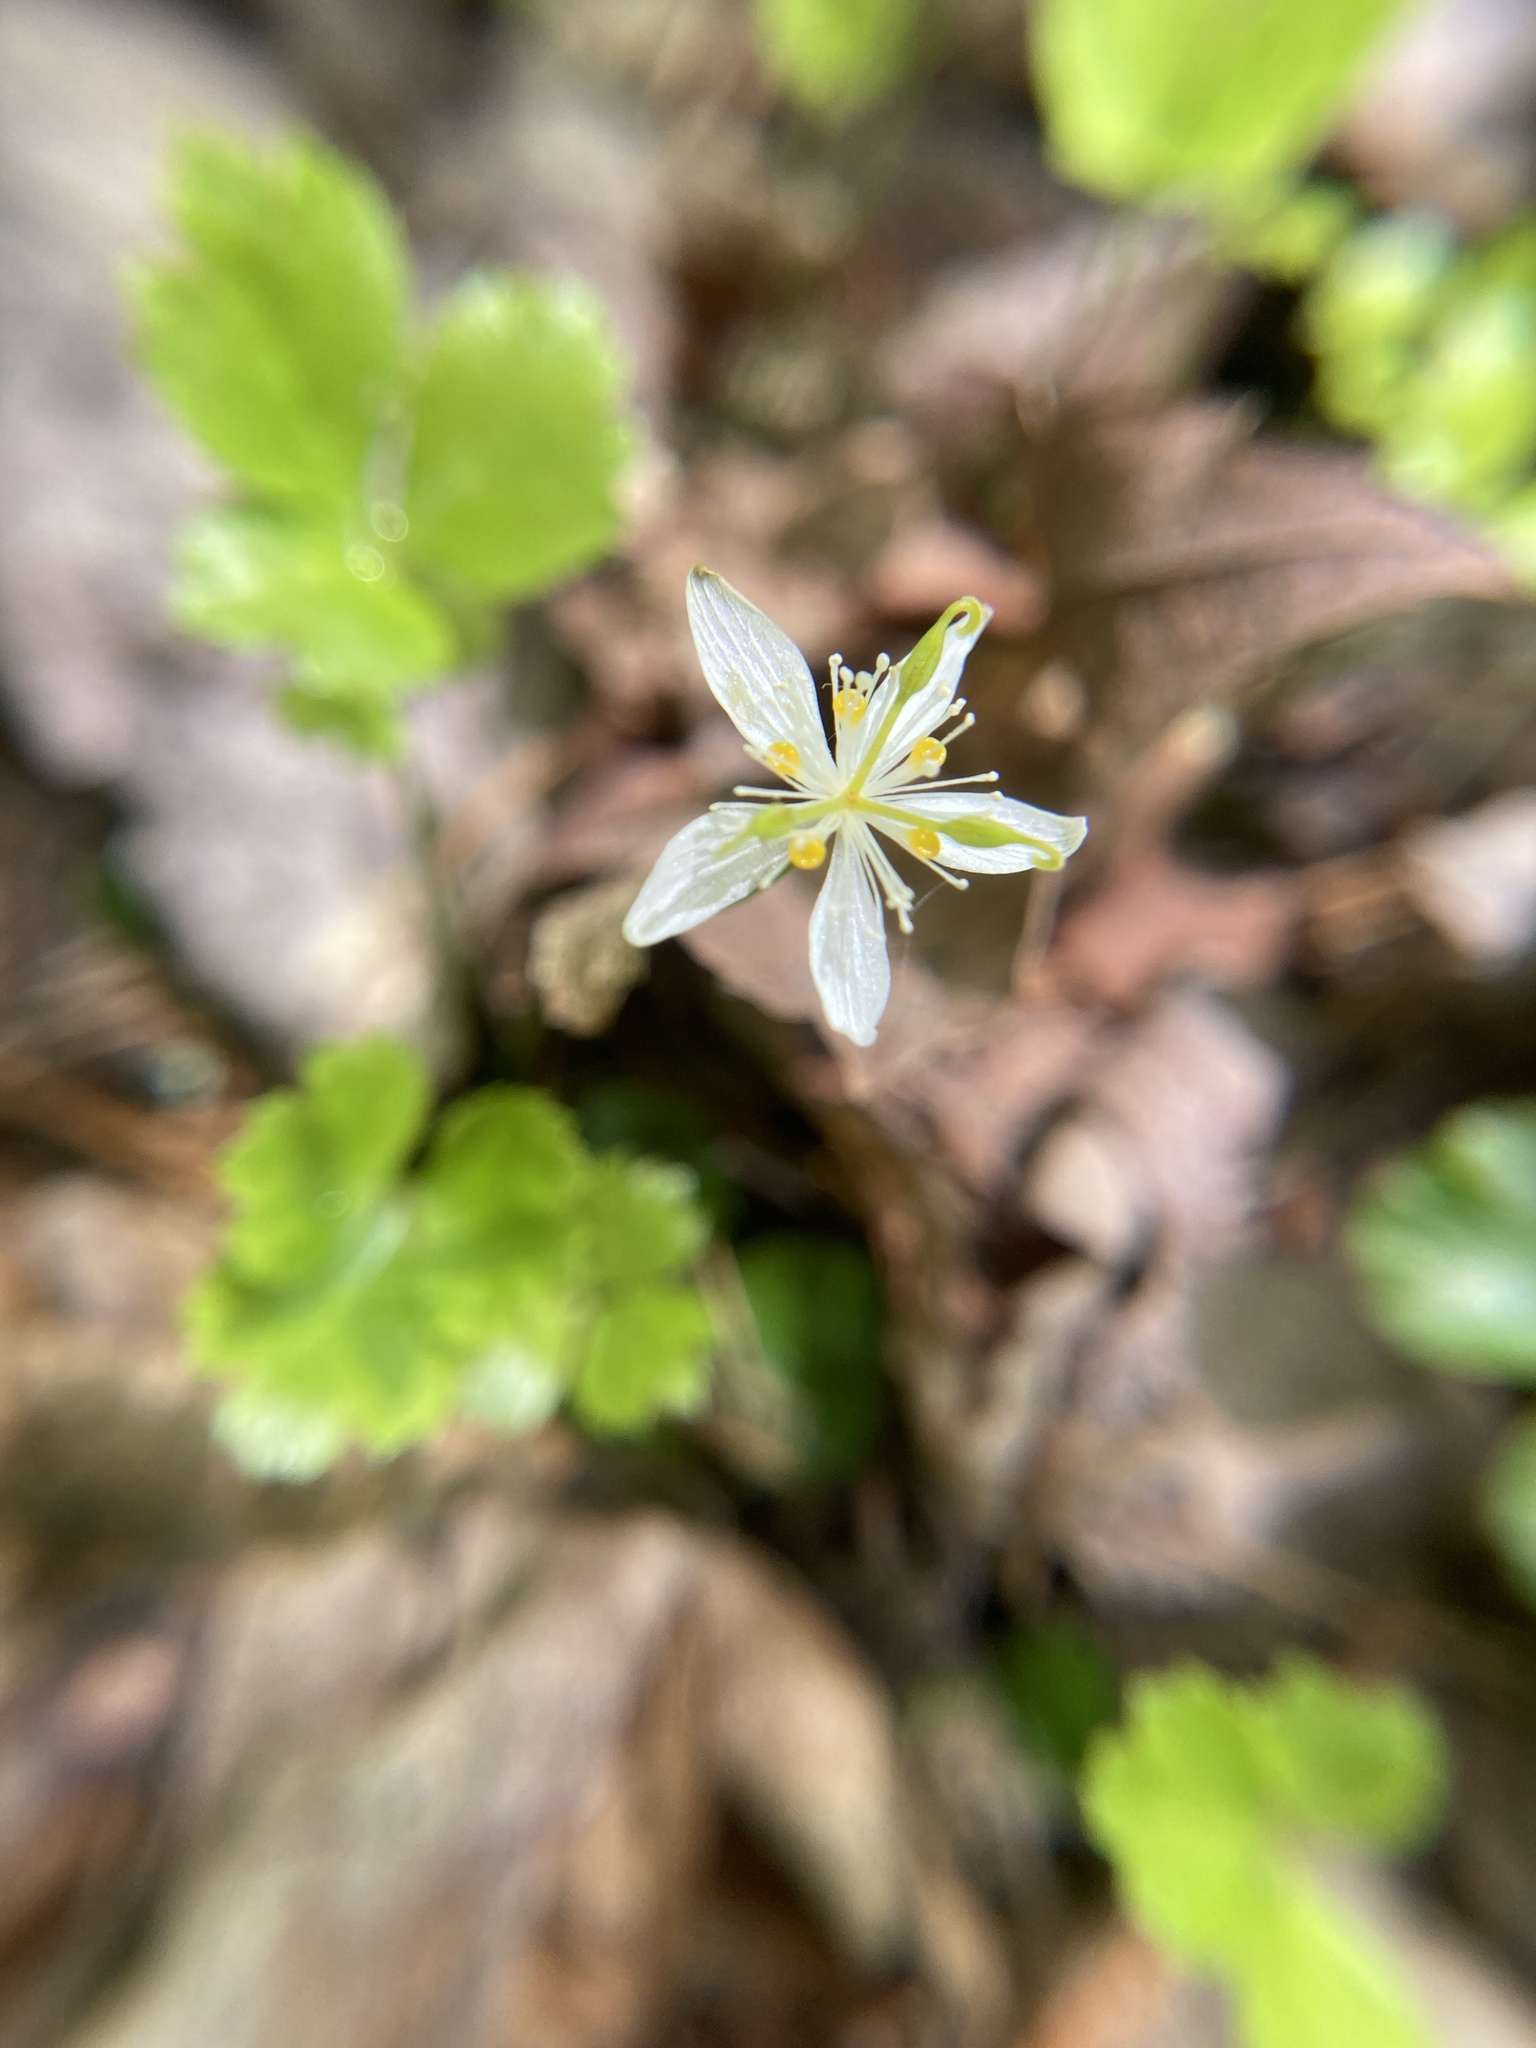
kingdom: Plantae
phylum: Tracheophyta
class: Magnoliopsida
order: Ranunculales
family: Ranunculaceae
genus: Coptis
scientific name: Coptis trifolia
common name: Canker-root
